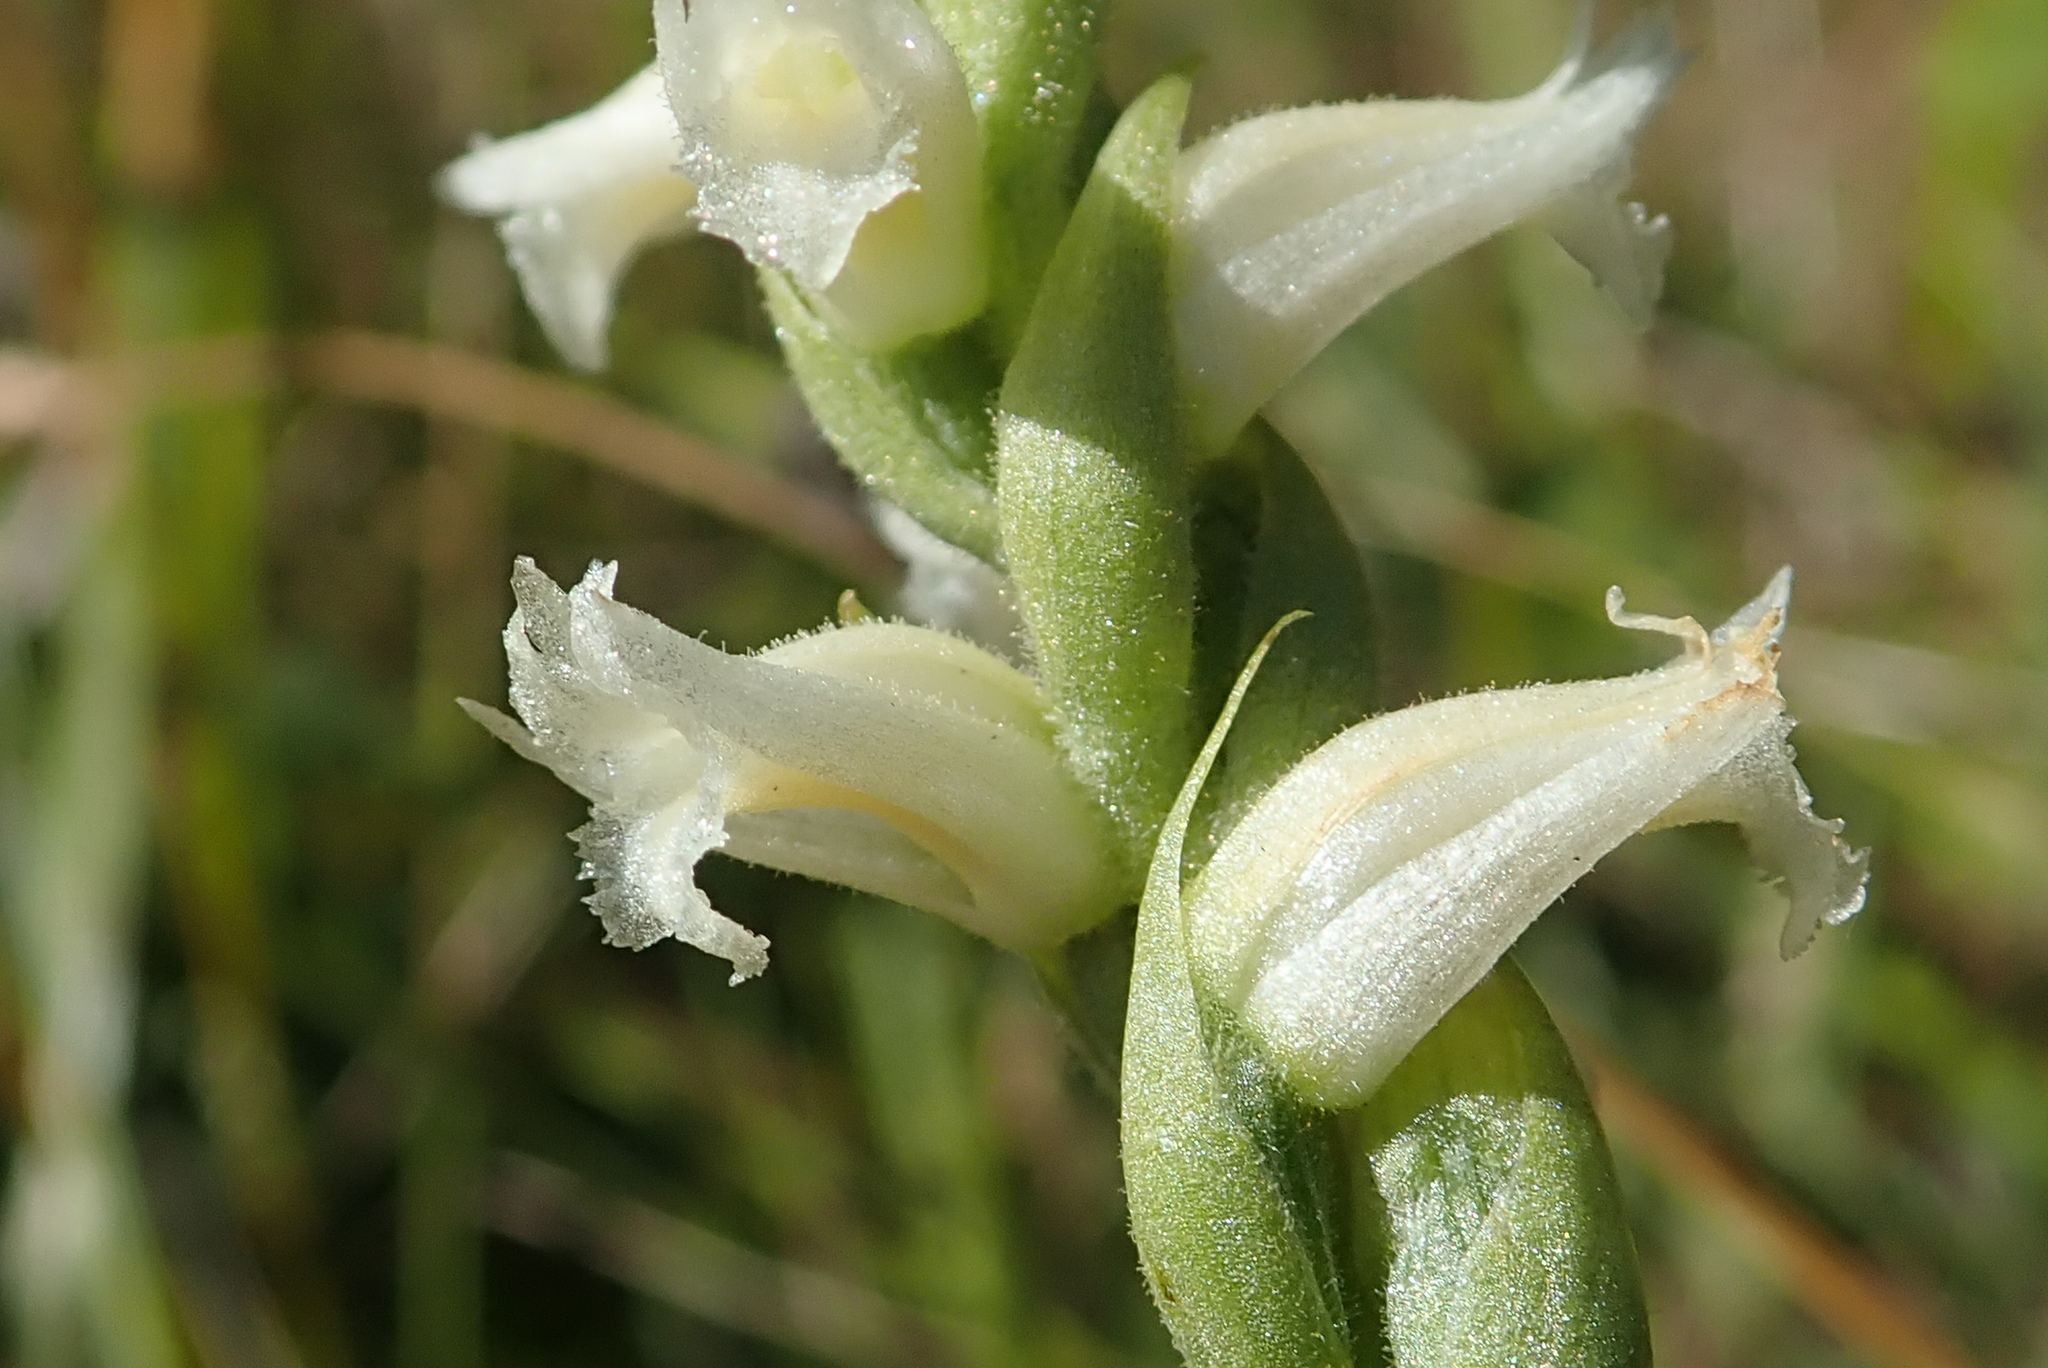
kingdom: Plantae
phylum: Tracheophyta
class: Liliopsida
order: Asparagales
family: Orchidaceae
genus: Spiranthes
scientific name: Spiranthes ochroleuca
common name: Yellow ladies'-tresses
